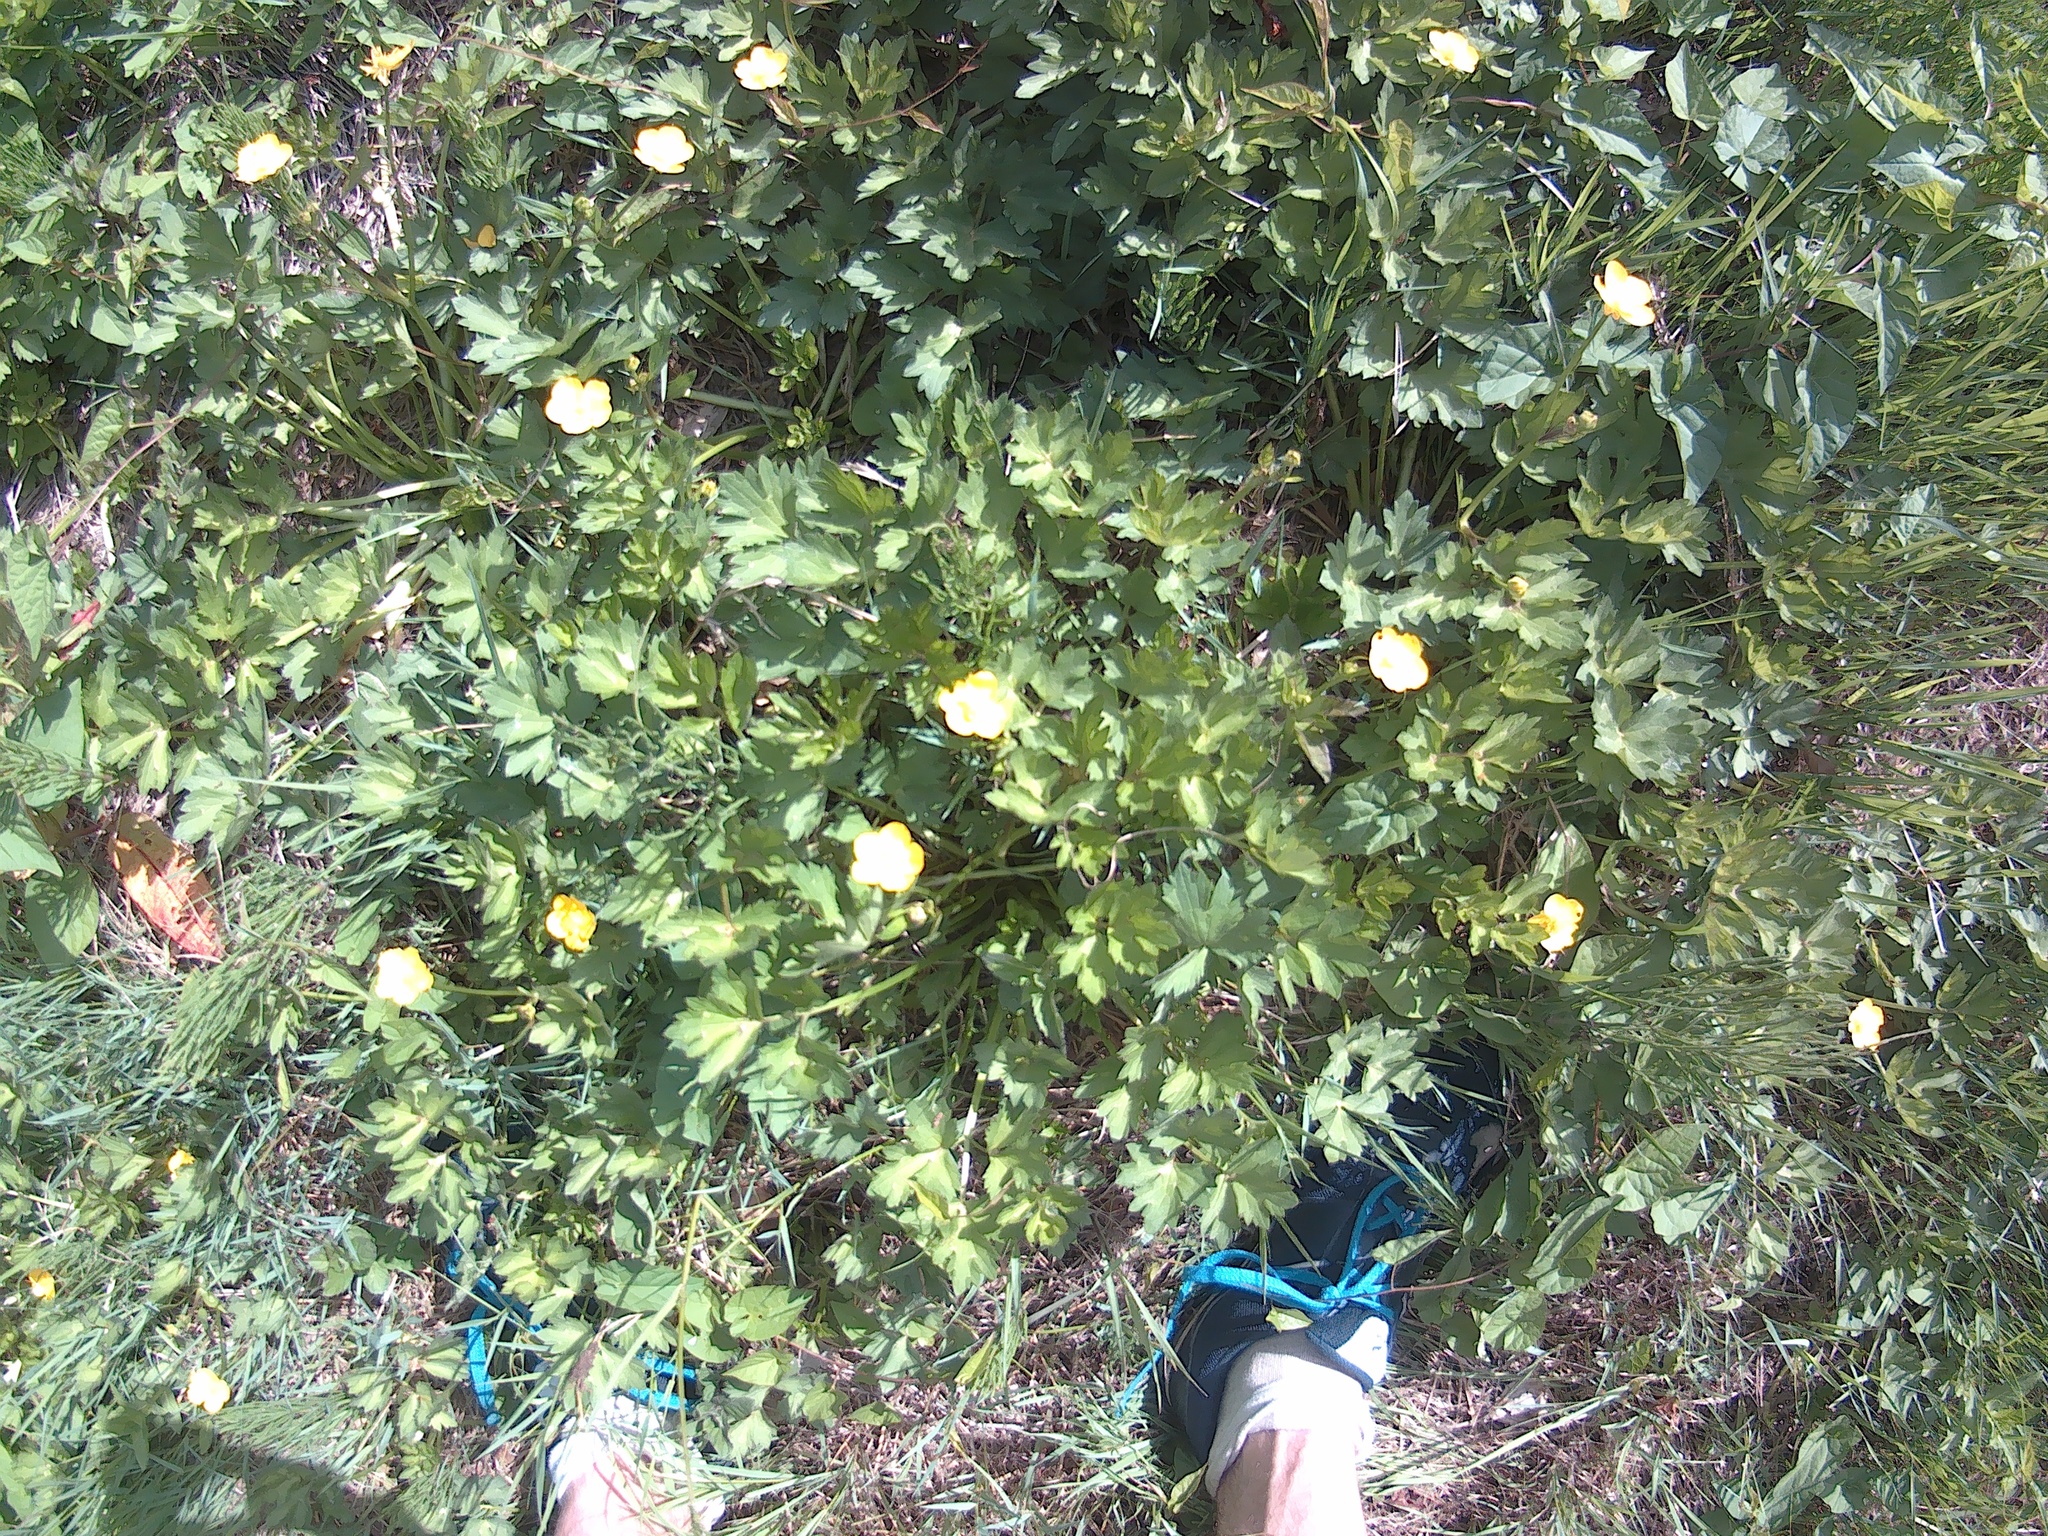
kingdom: Plantae
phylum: Tracheophyta
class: Magnoliopsida
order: Ranunculales
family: Ranunculaceae
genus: Ranunculus
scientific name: Ranunculus repens
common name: Creeping buttercup
